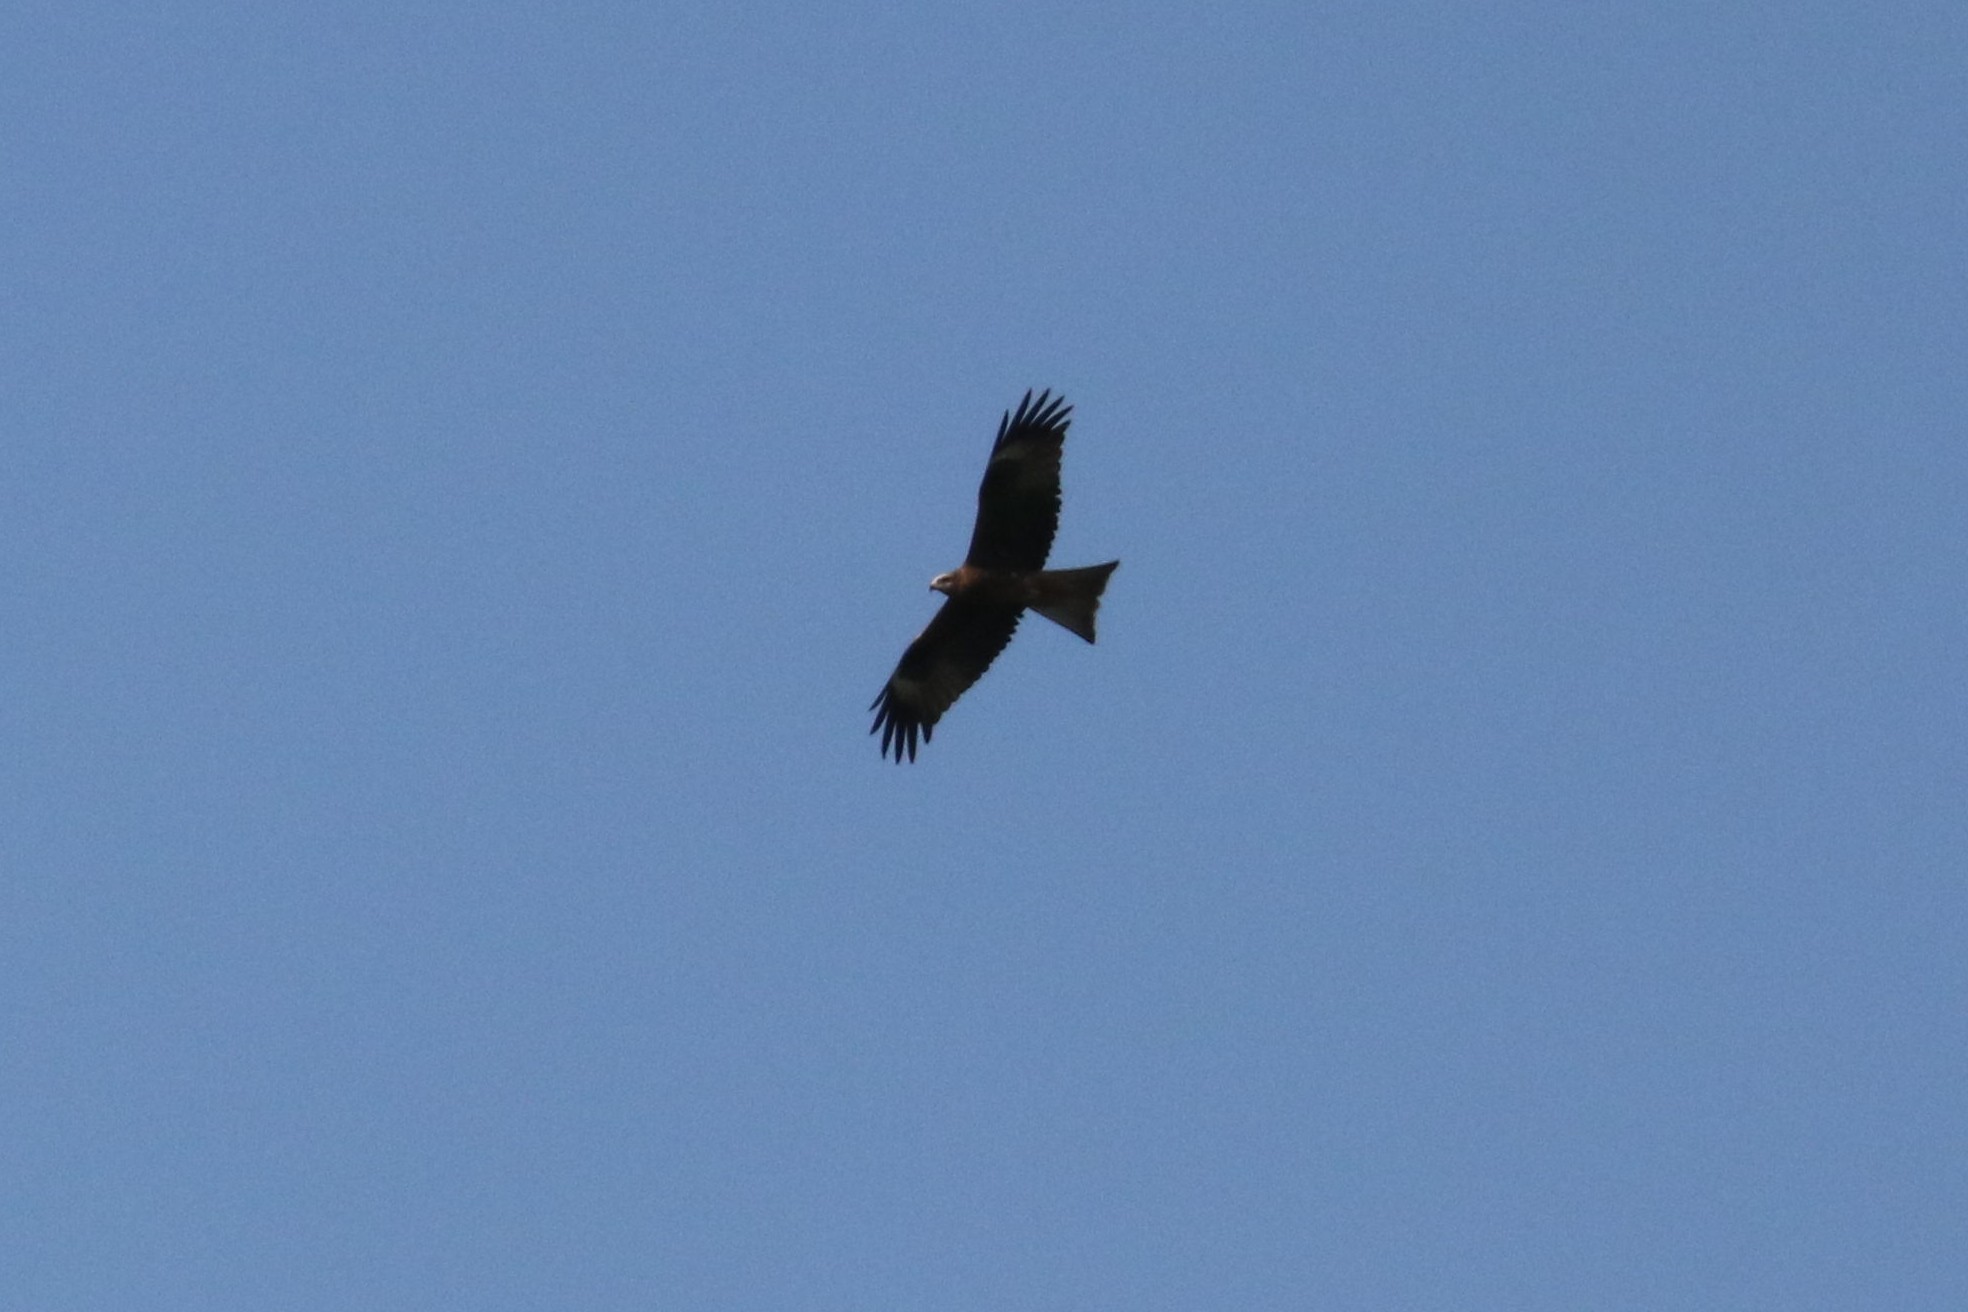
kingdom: Animalia
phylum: Chordata
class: Aves
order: Accipitriformes
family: Accipitridae
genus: Milvus
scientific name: Milvus migrans
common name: Black kite
